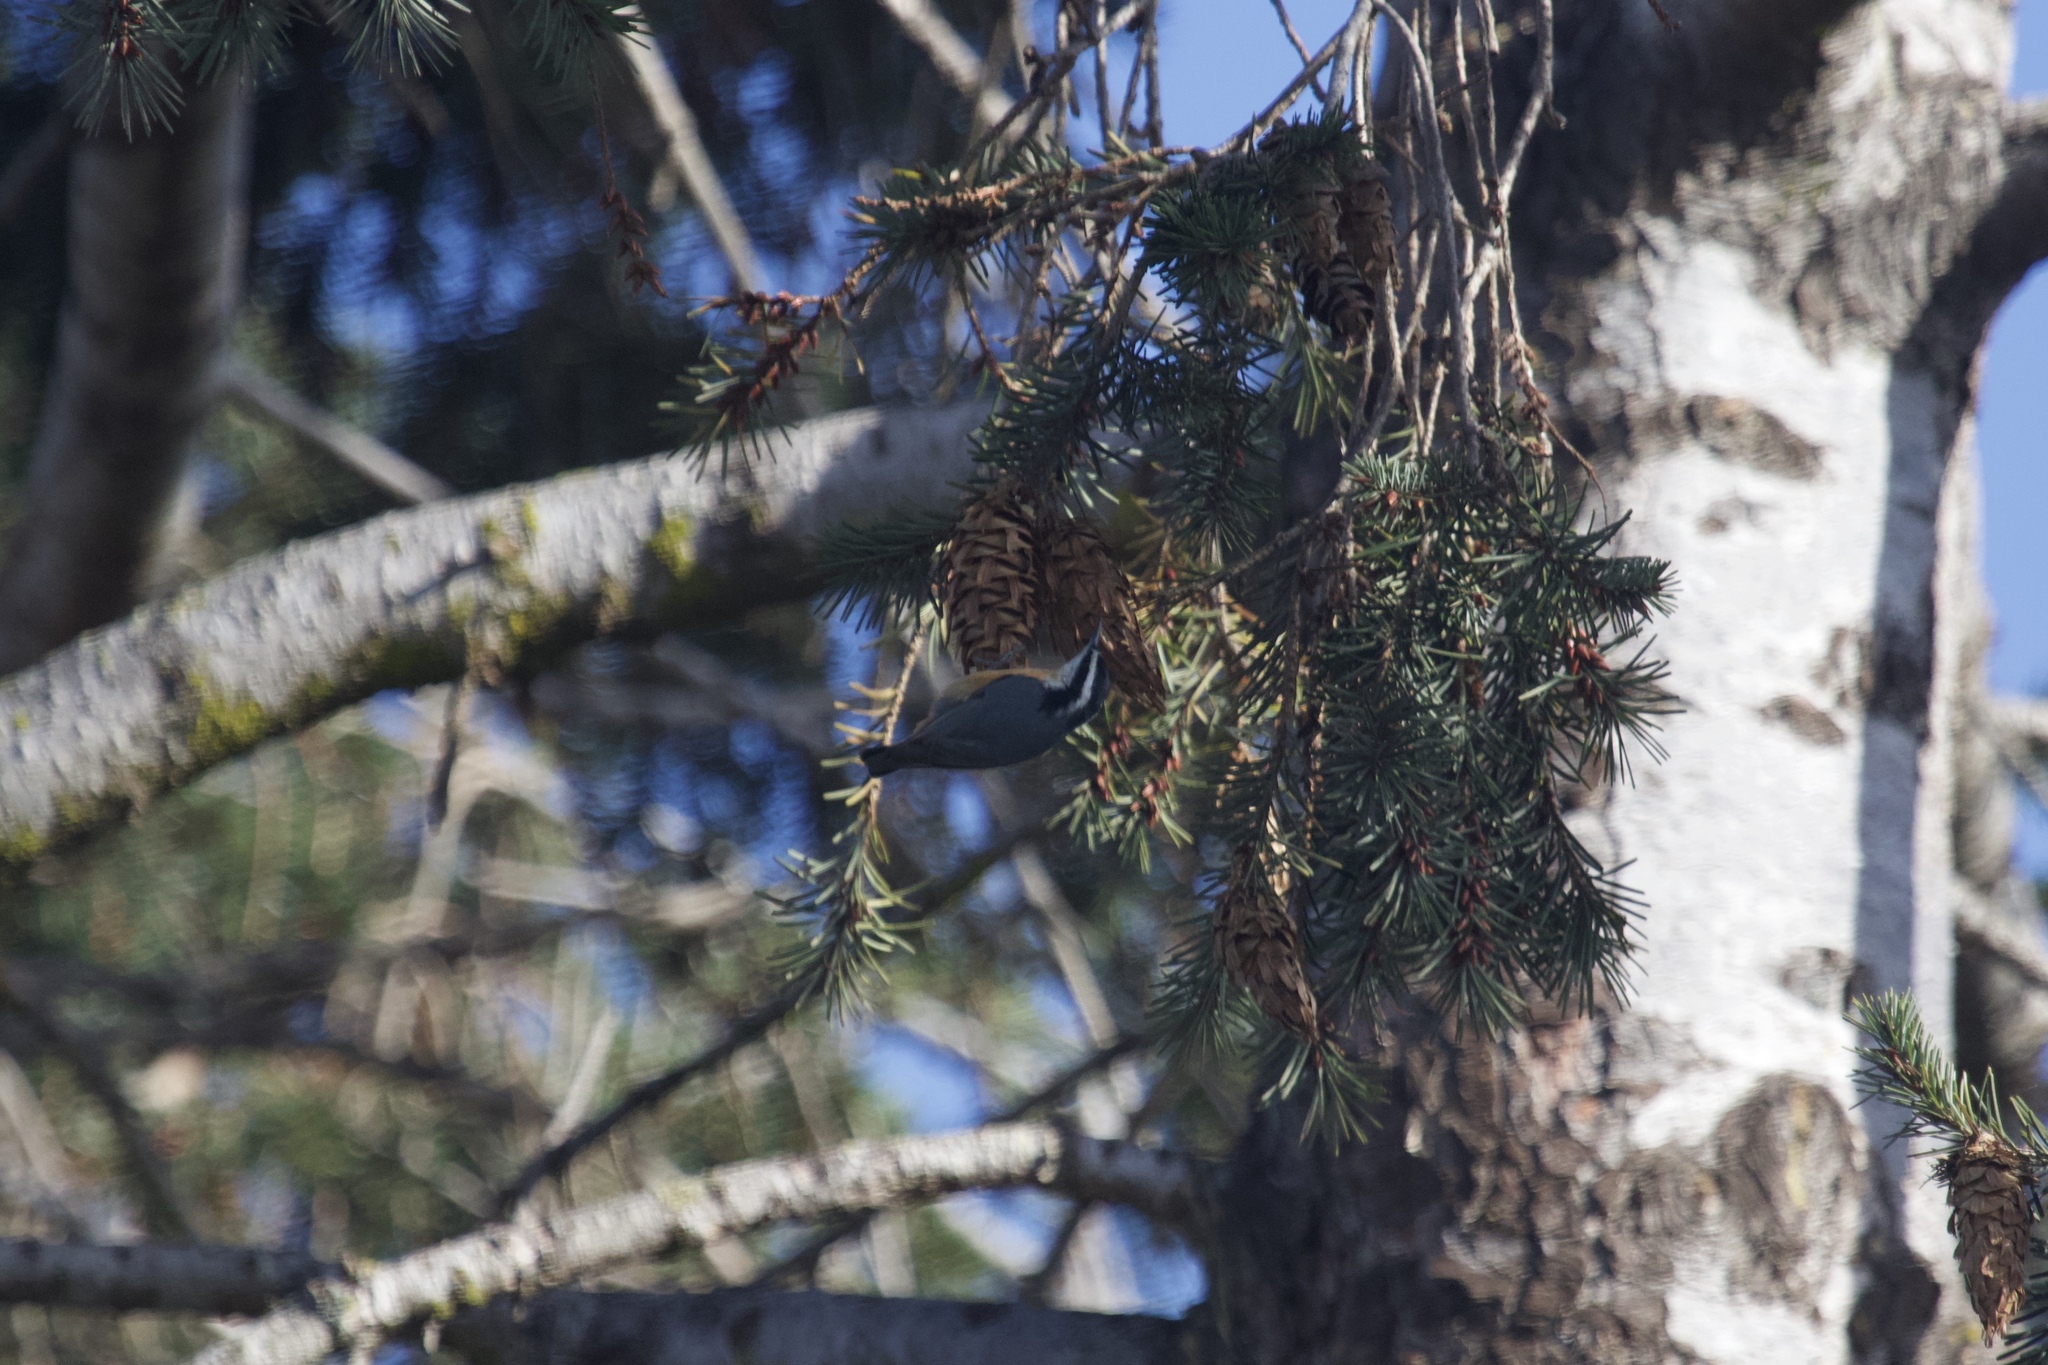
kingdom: Animalia
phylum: Chordata
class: Aves
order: Passeriformes
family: Sittidae
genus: Sitta
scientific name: Sitta canadensis
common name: Red-breasted nuthatch
